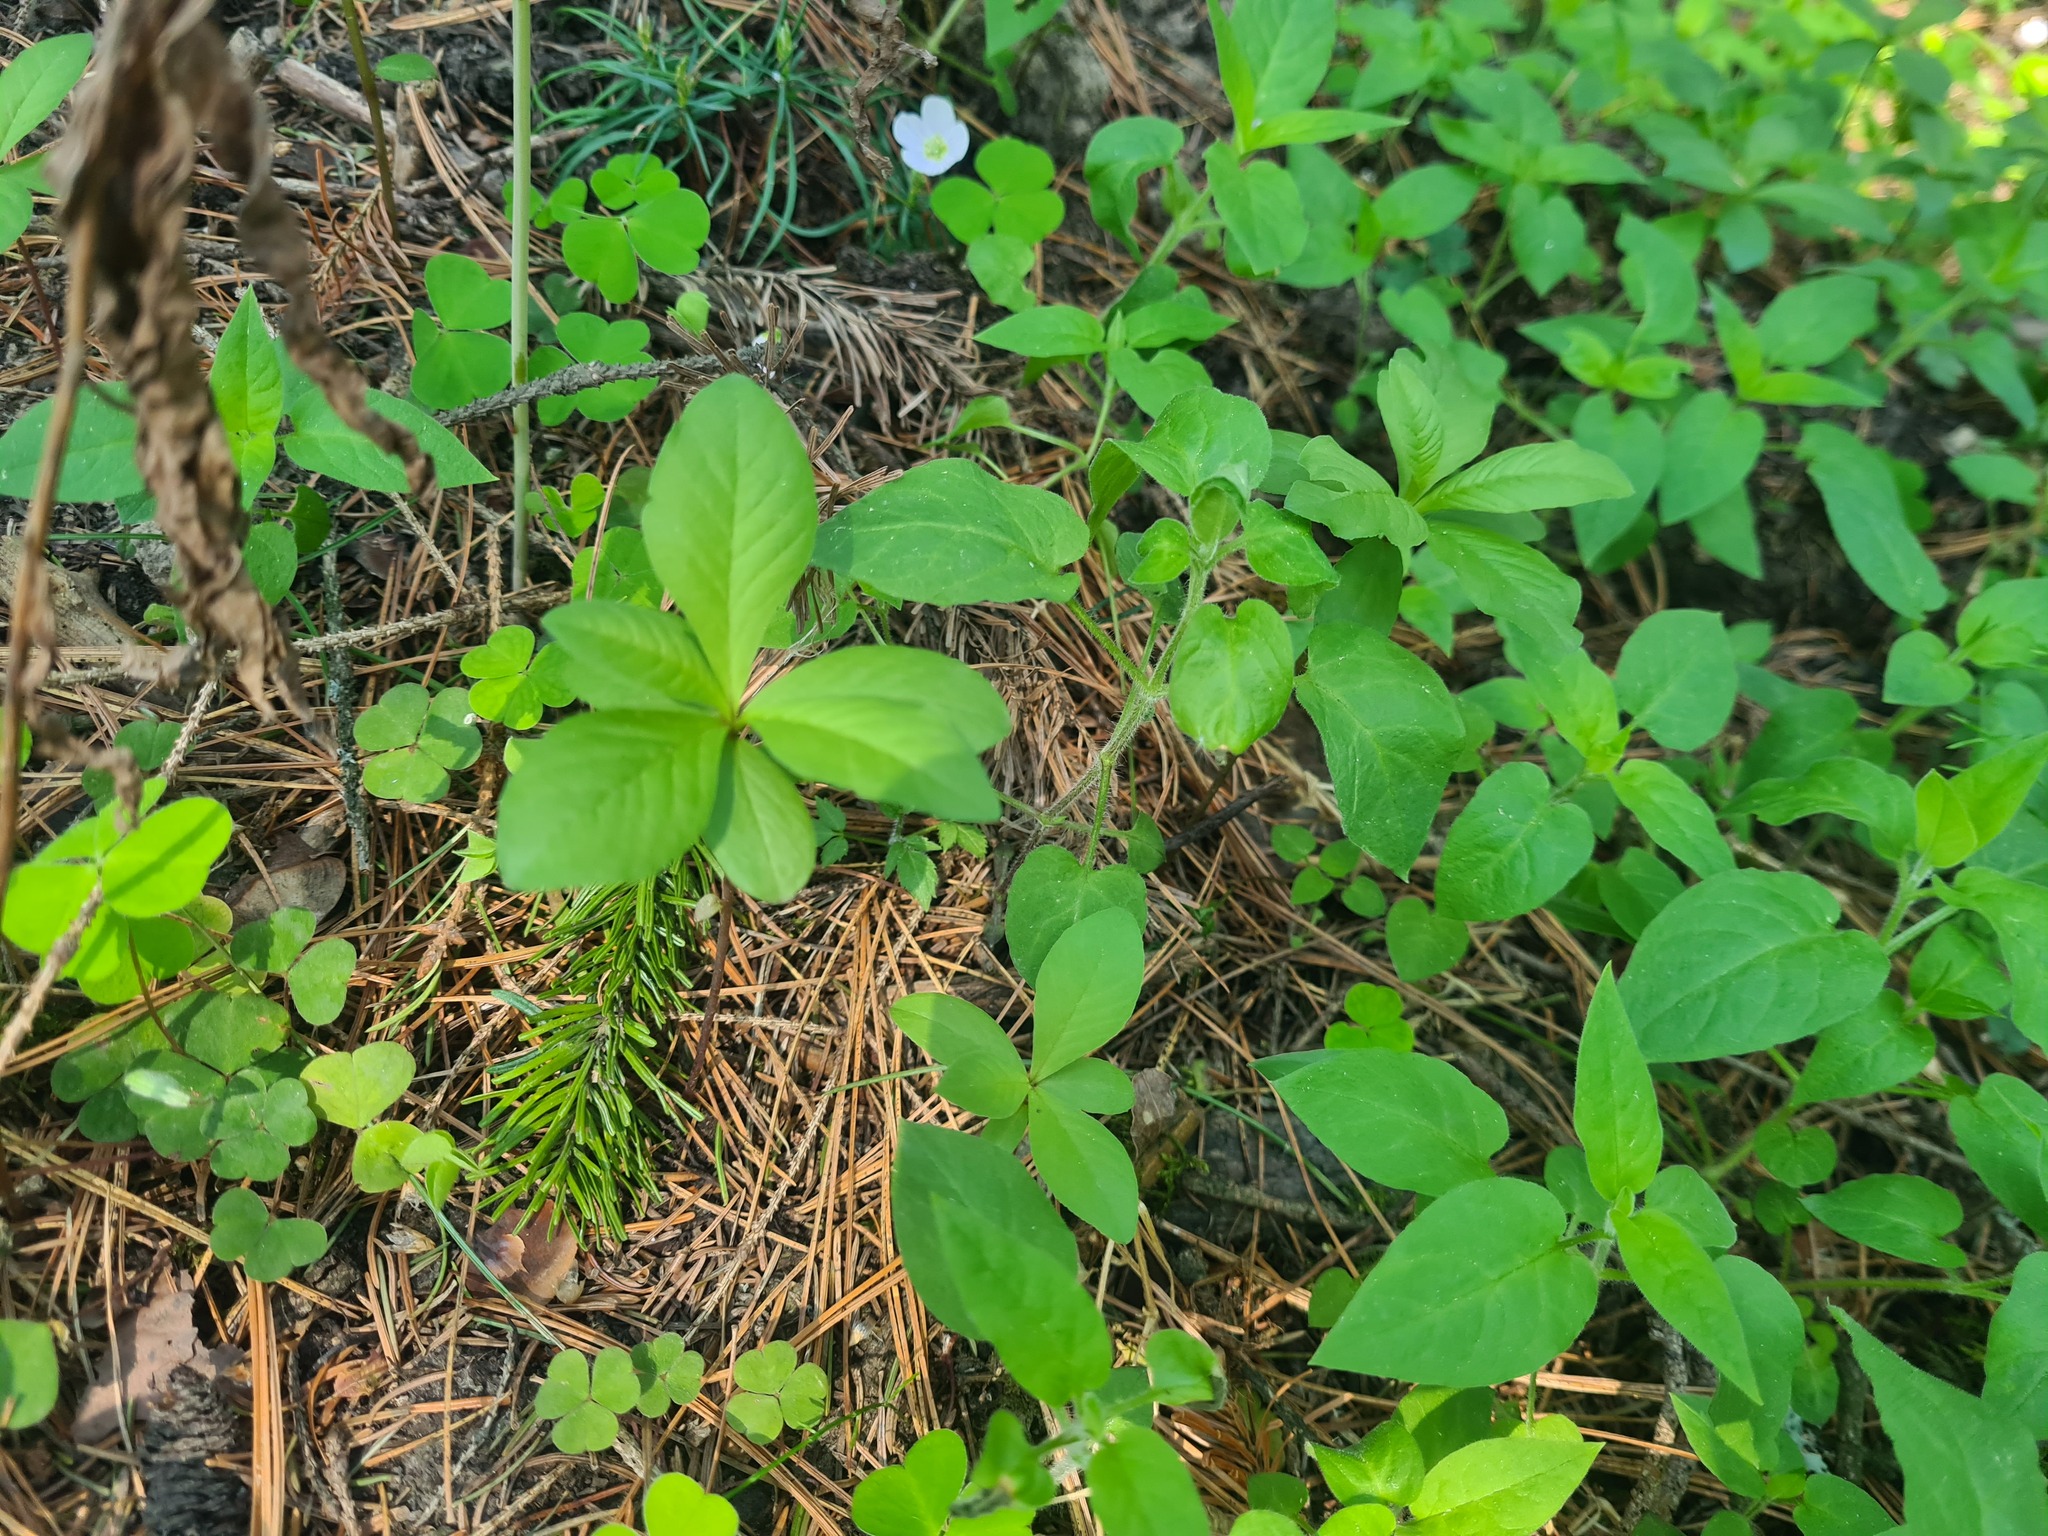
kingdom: Plantae
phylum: Tracheophyta
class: Magnoliopsida
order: Ericales
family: Primulaceae
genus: Lysimachia
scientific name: Lysimachia europaea
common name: Arctic starflower
